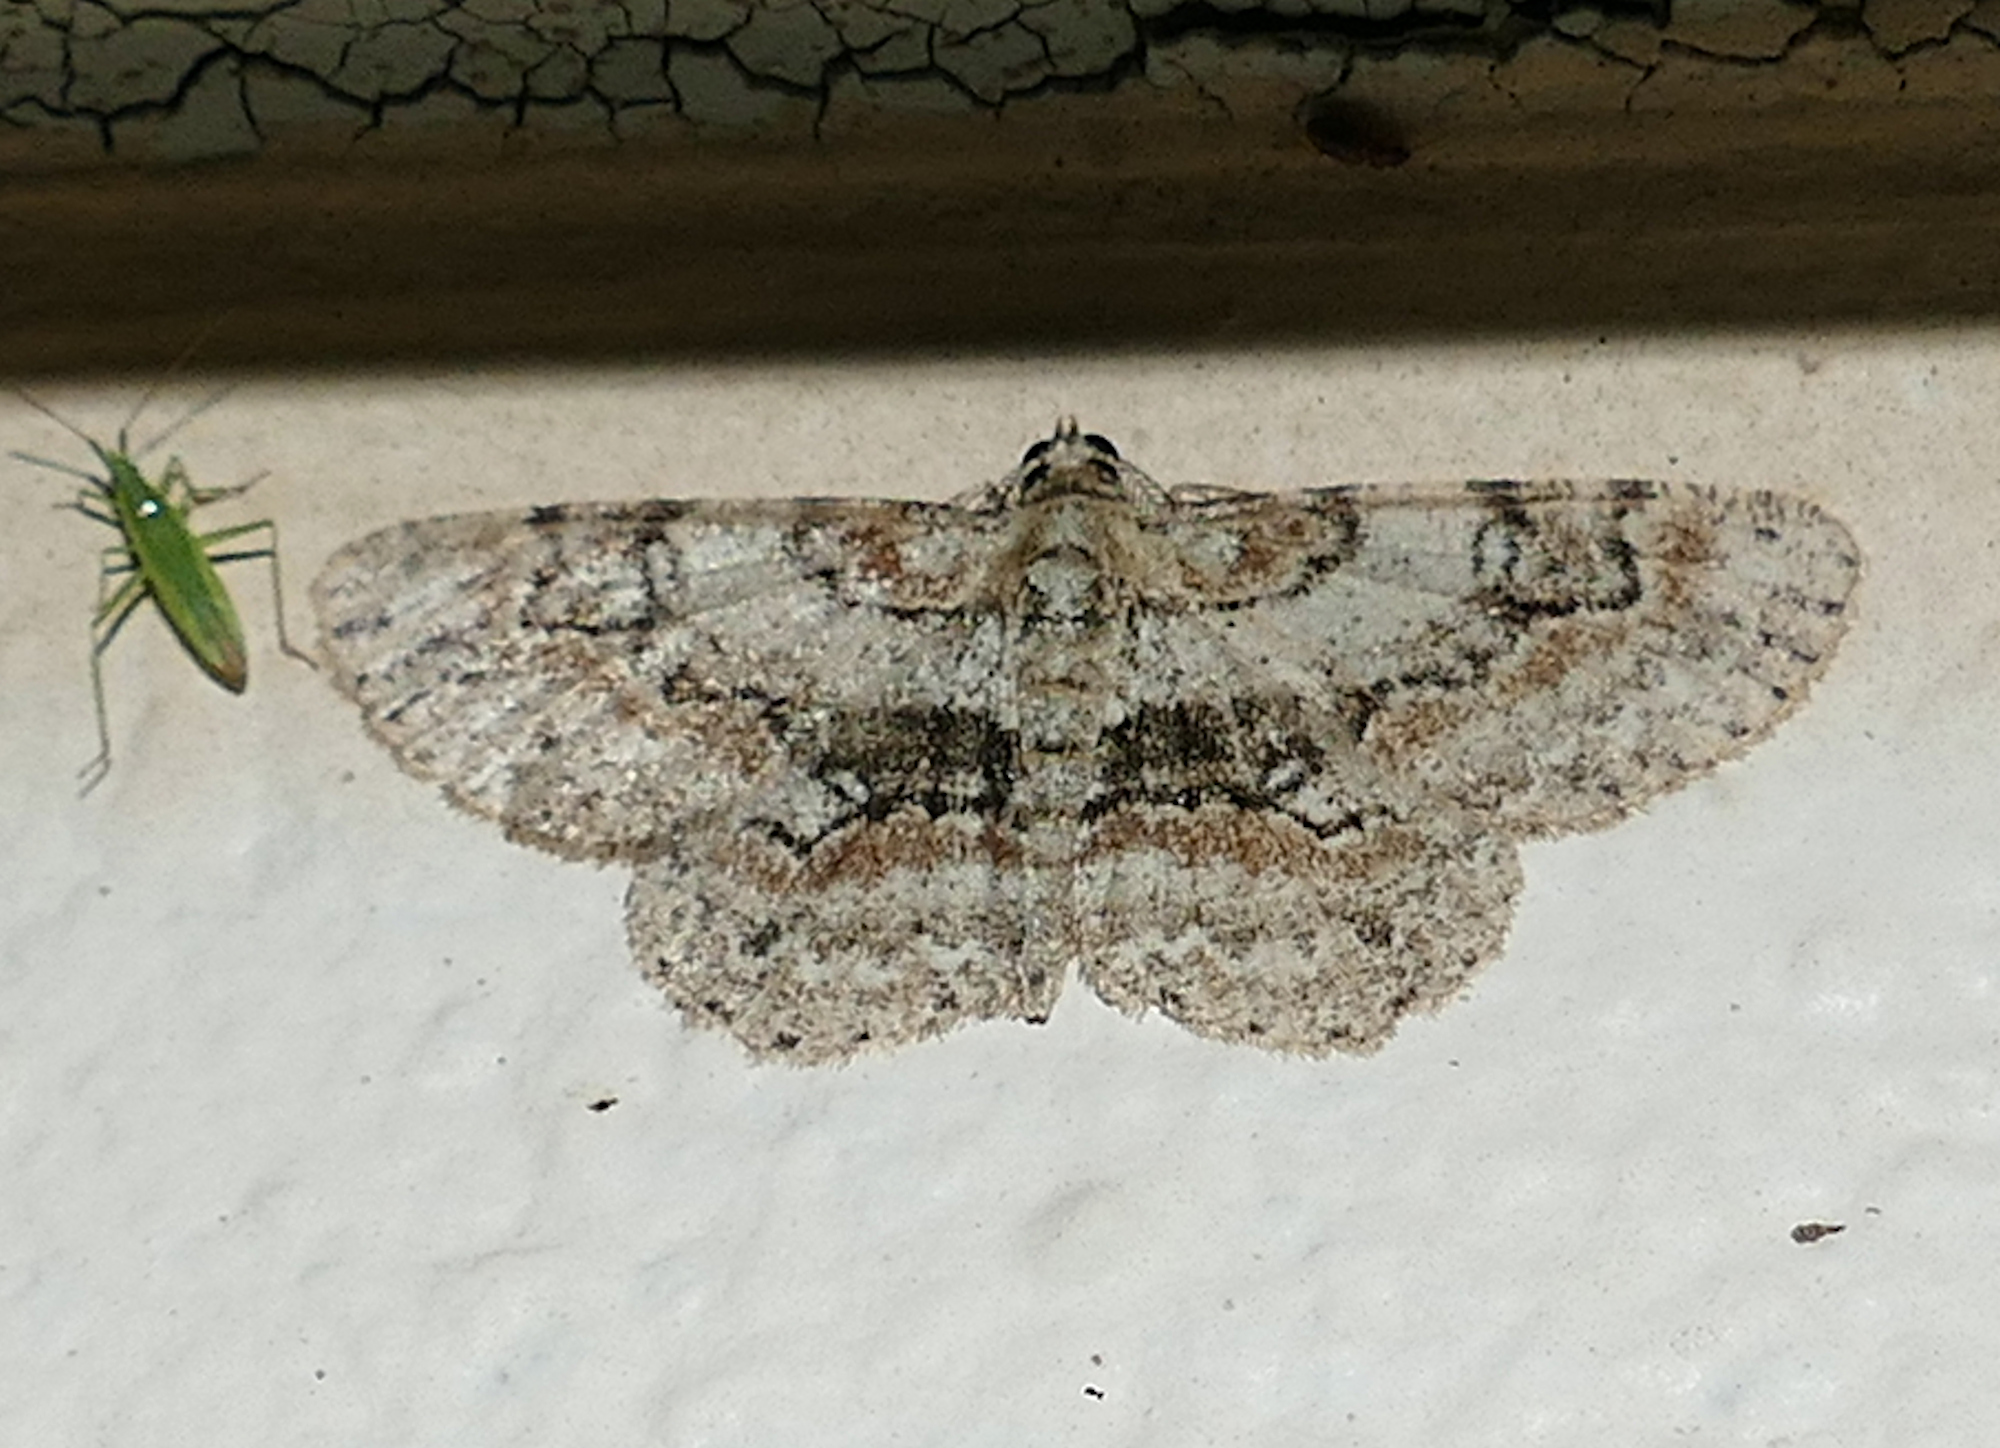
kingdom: Animalia
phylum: Arthropoda
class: Insecta
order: Lepidoptera
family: Geometridae
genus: Iridopsis
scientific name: Iridopsis ephyraria
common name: Pale-winged gray
